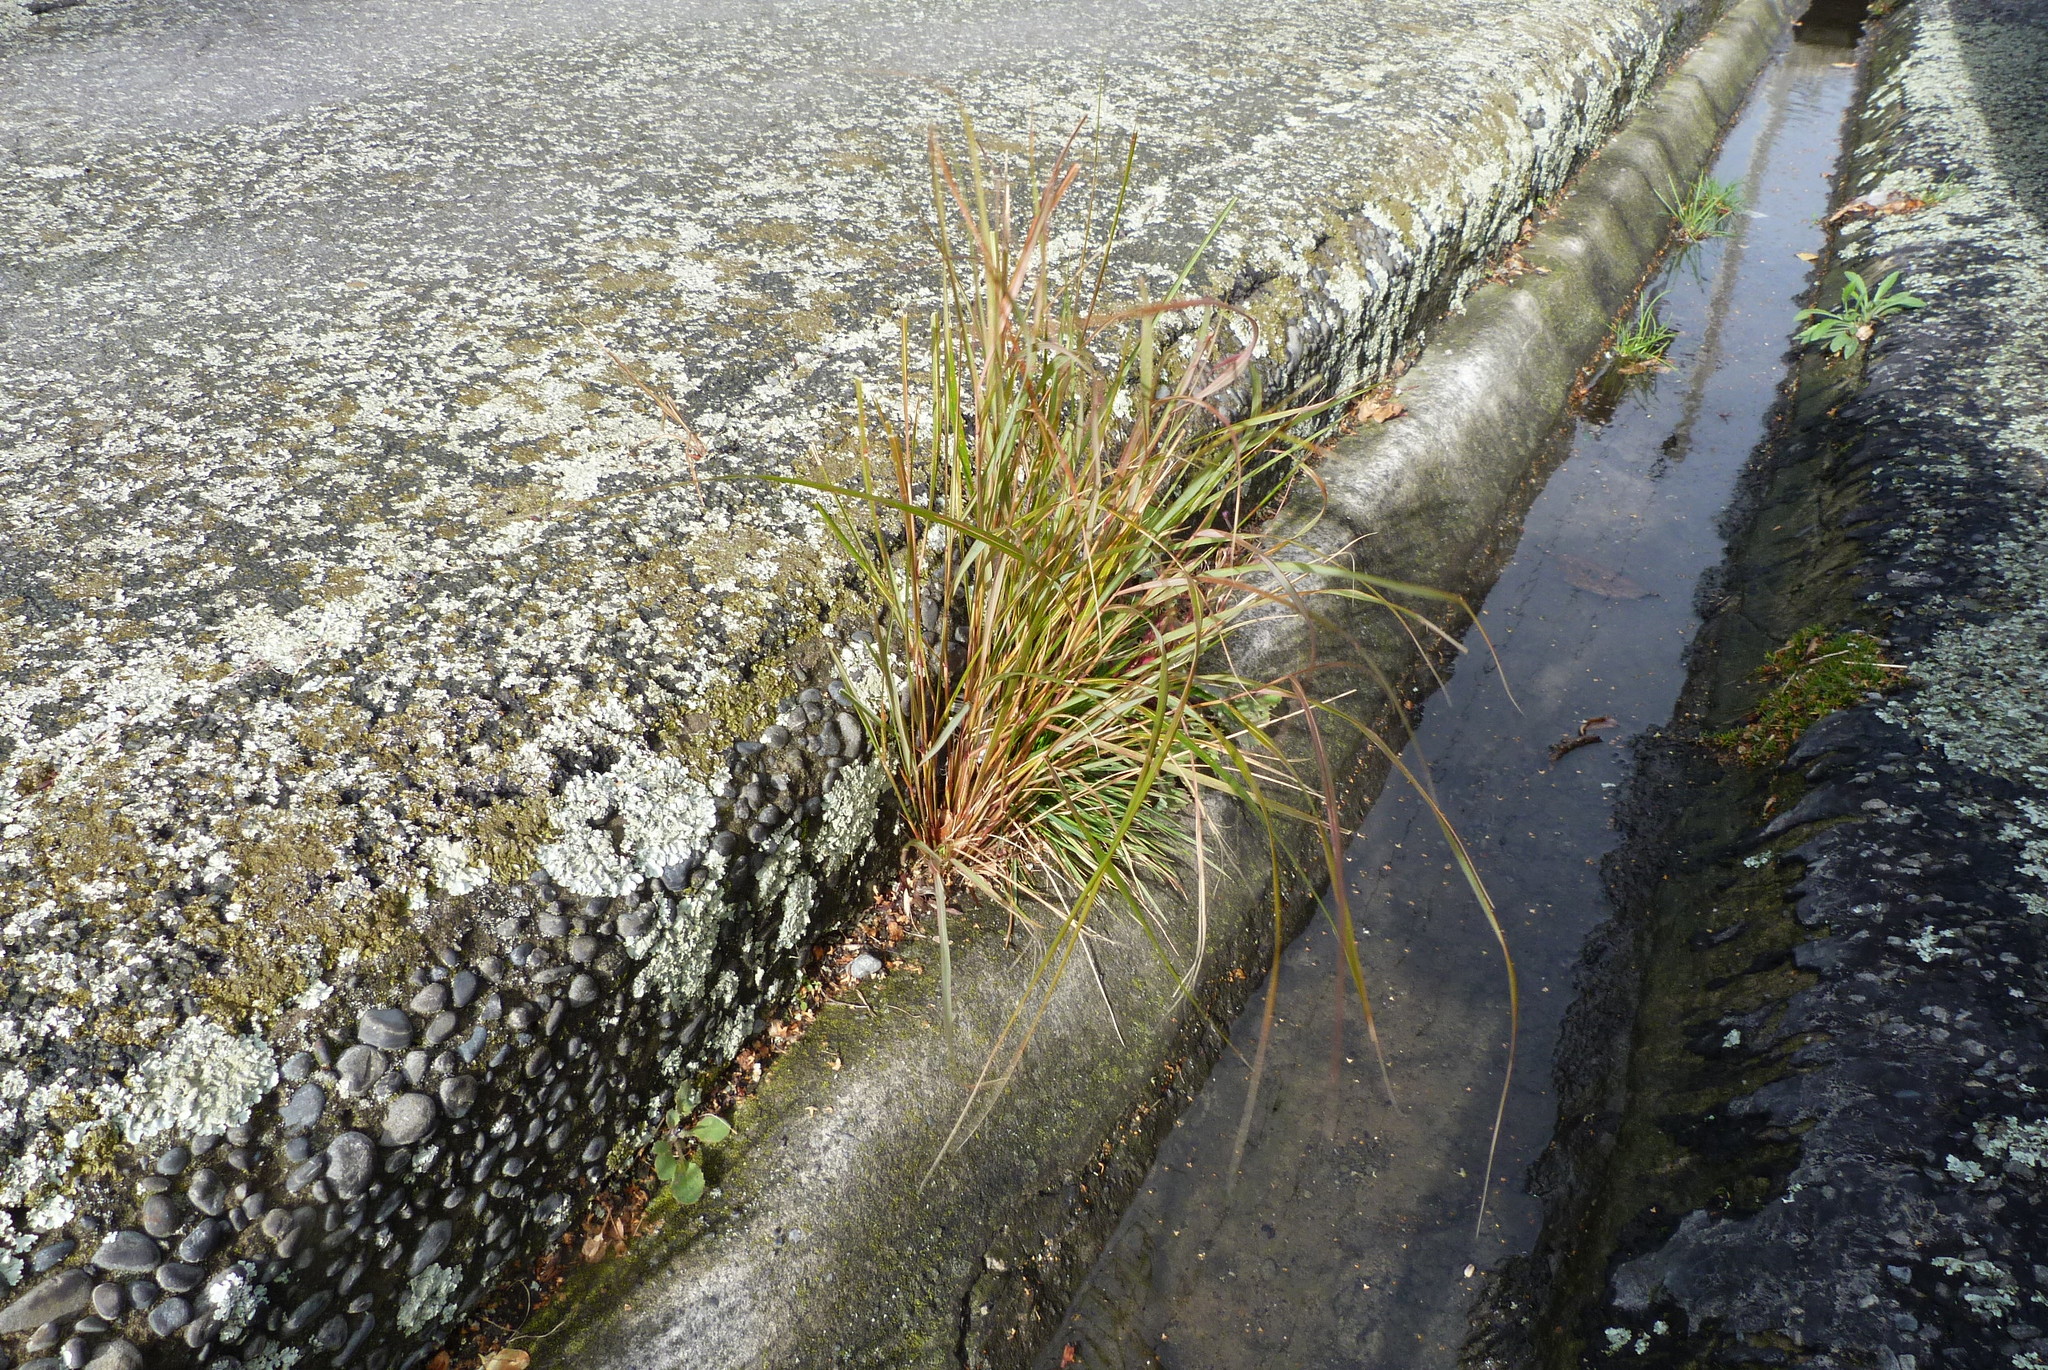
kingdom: Plantae
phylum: Tracheophyta
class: Liliopsida
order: Poales
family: Poaceae
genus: Anemanthele
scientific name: Anemanthele lessoniana
